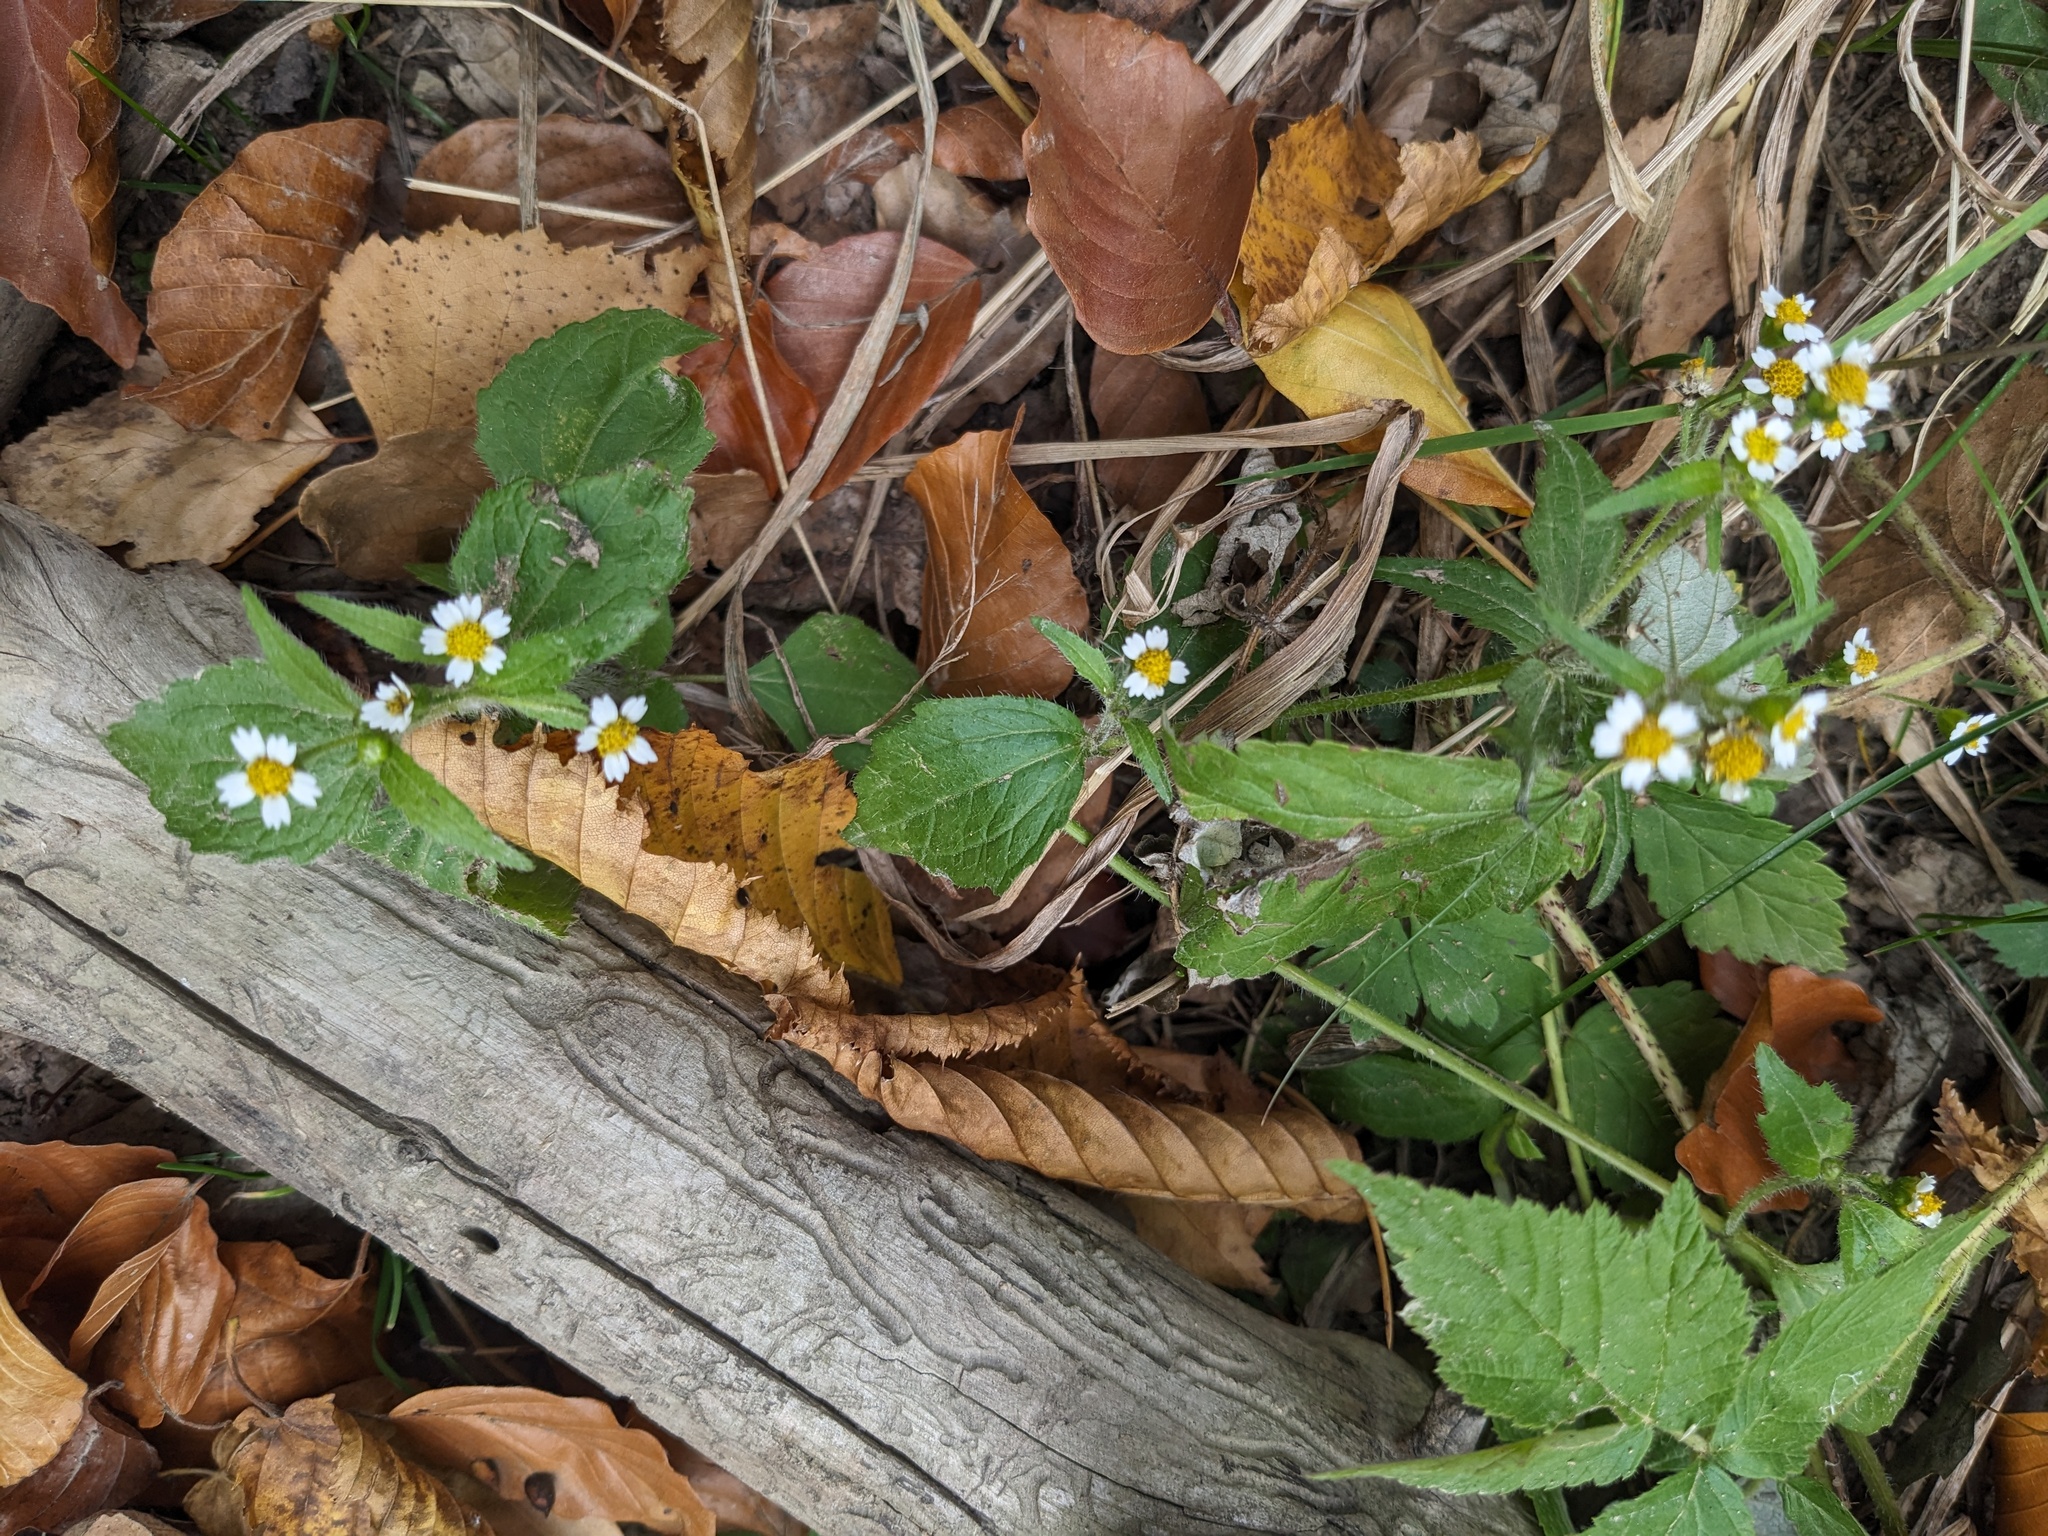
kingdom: Plantae
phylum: Tracheophyta
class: Magnoliopsida
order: Asterales
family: Asteraceae
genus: Galinsoga
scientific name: Galinsoga quadriradiata
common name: Shaggy soldier
